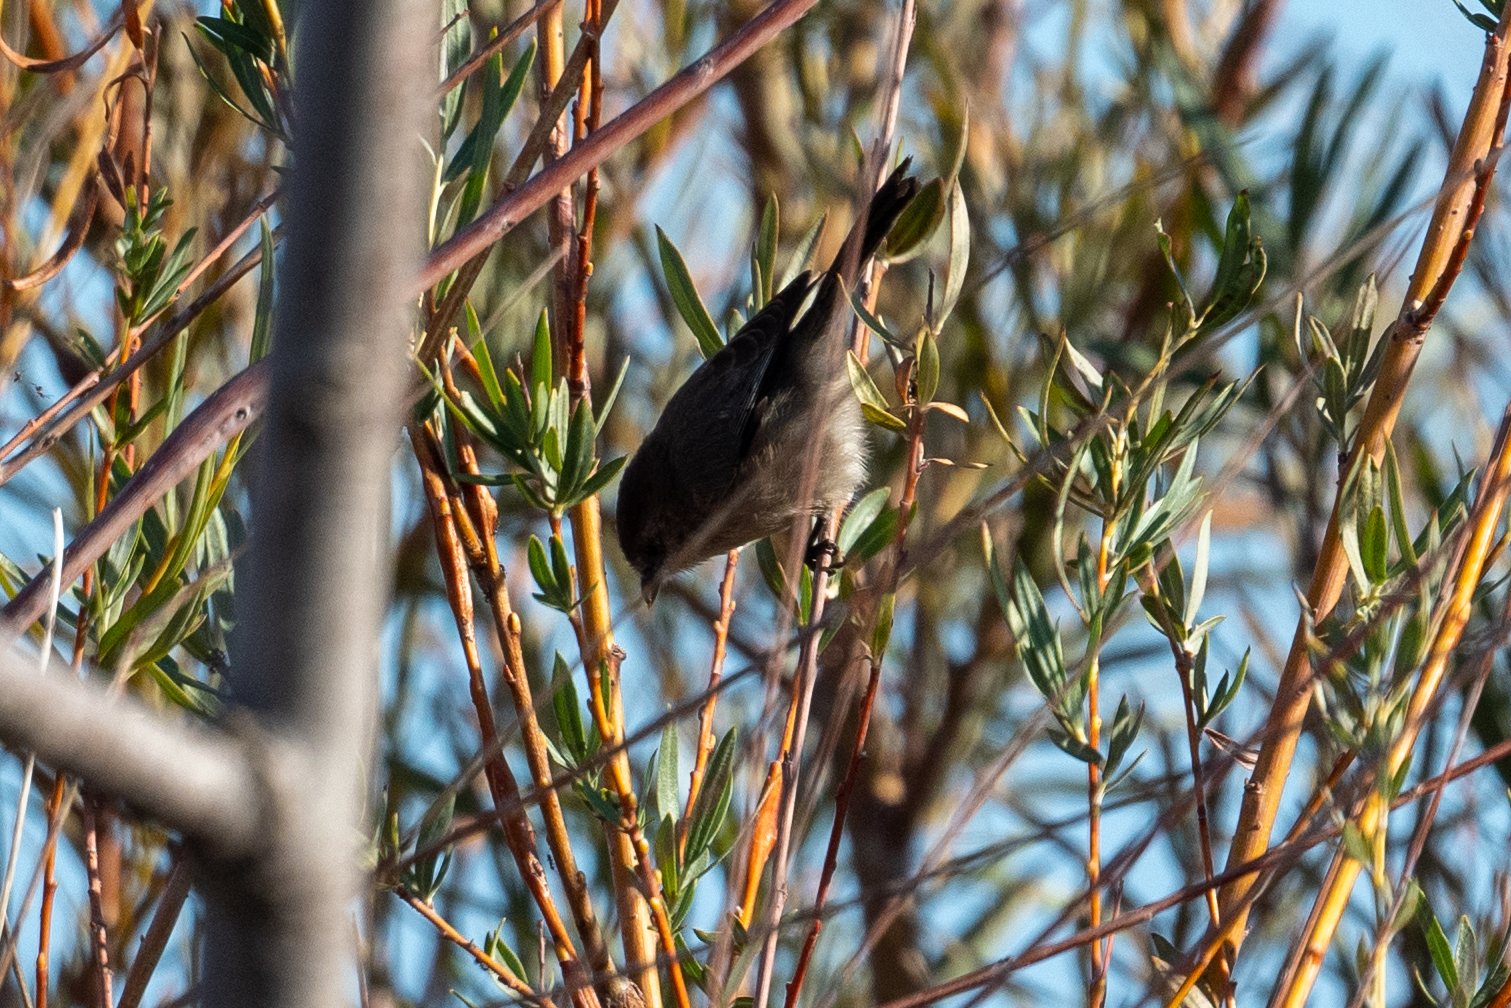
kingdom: Animalia
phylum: Chordata
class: Aves
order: Passeriformes
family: Aegithalidae
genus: Psaltriparus
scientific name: Psaltriparus minimus
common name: American bushtit
